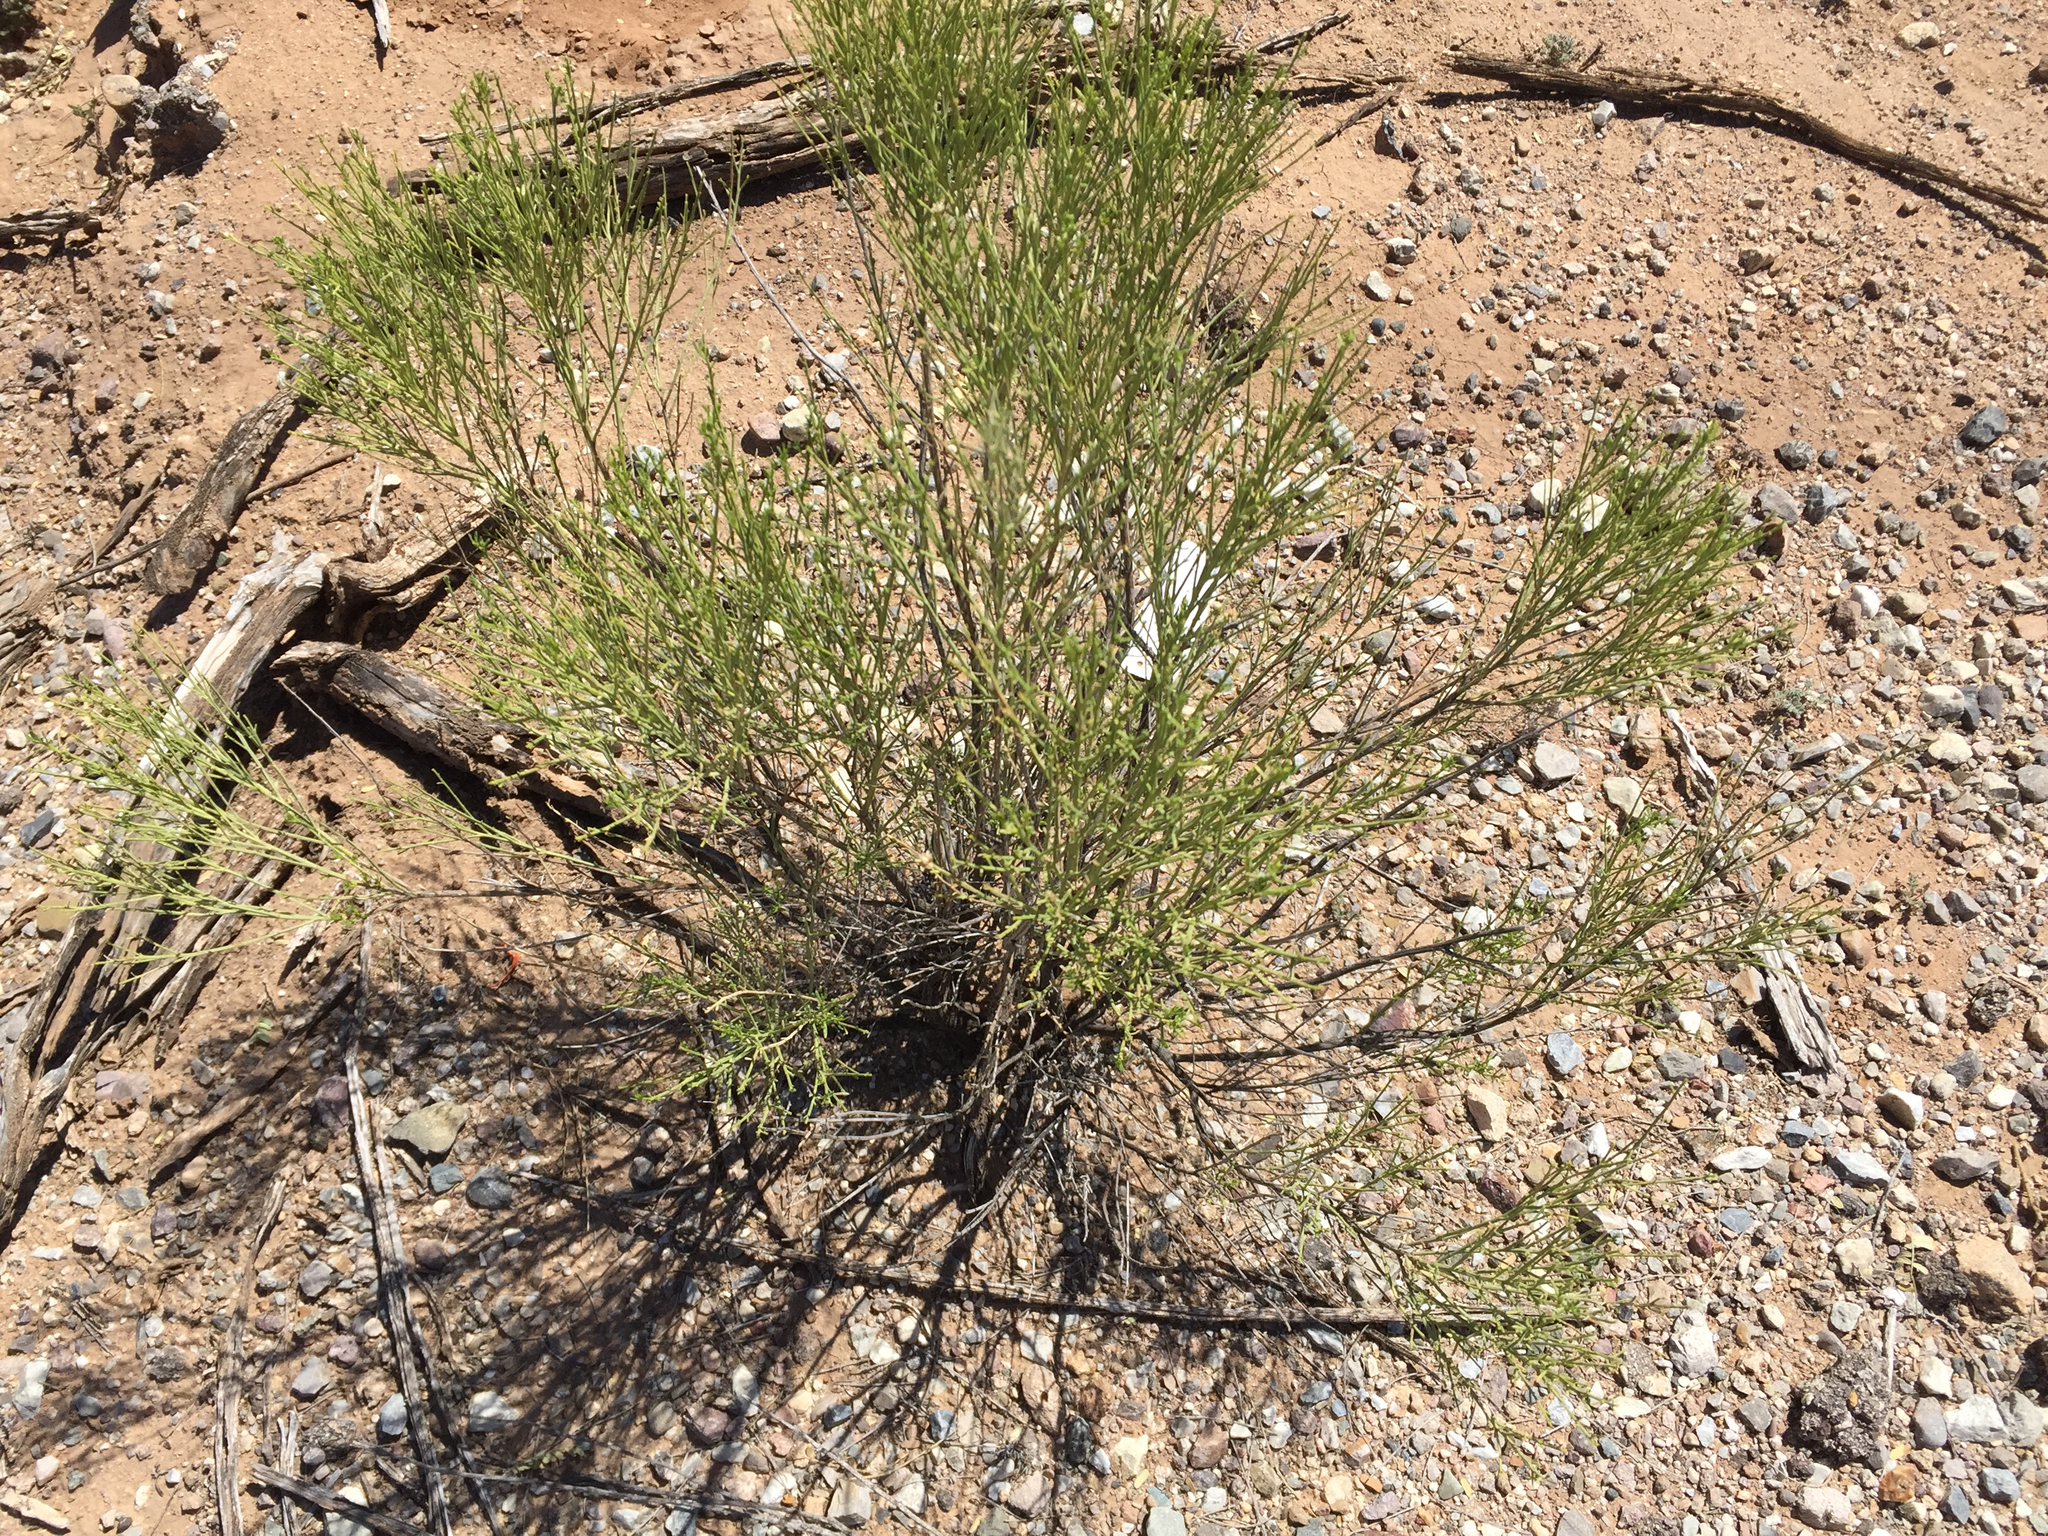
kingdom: Plantae
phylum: Tracheophyta
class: Magnoliopsida
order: Asterales
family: Asteraceae
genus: Baccharis
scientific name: Baccharis sarothroides
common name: Desert-broom
